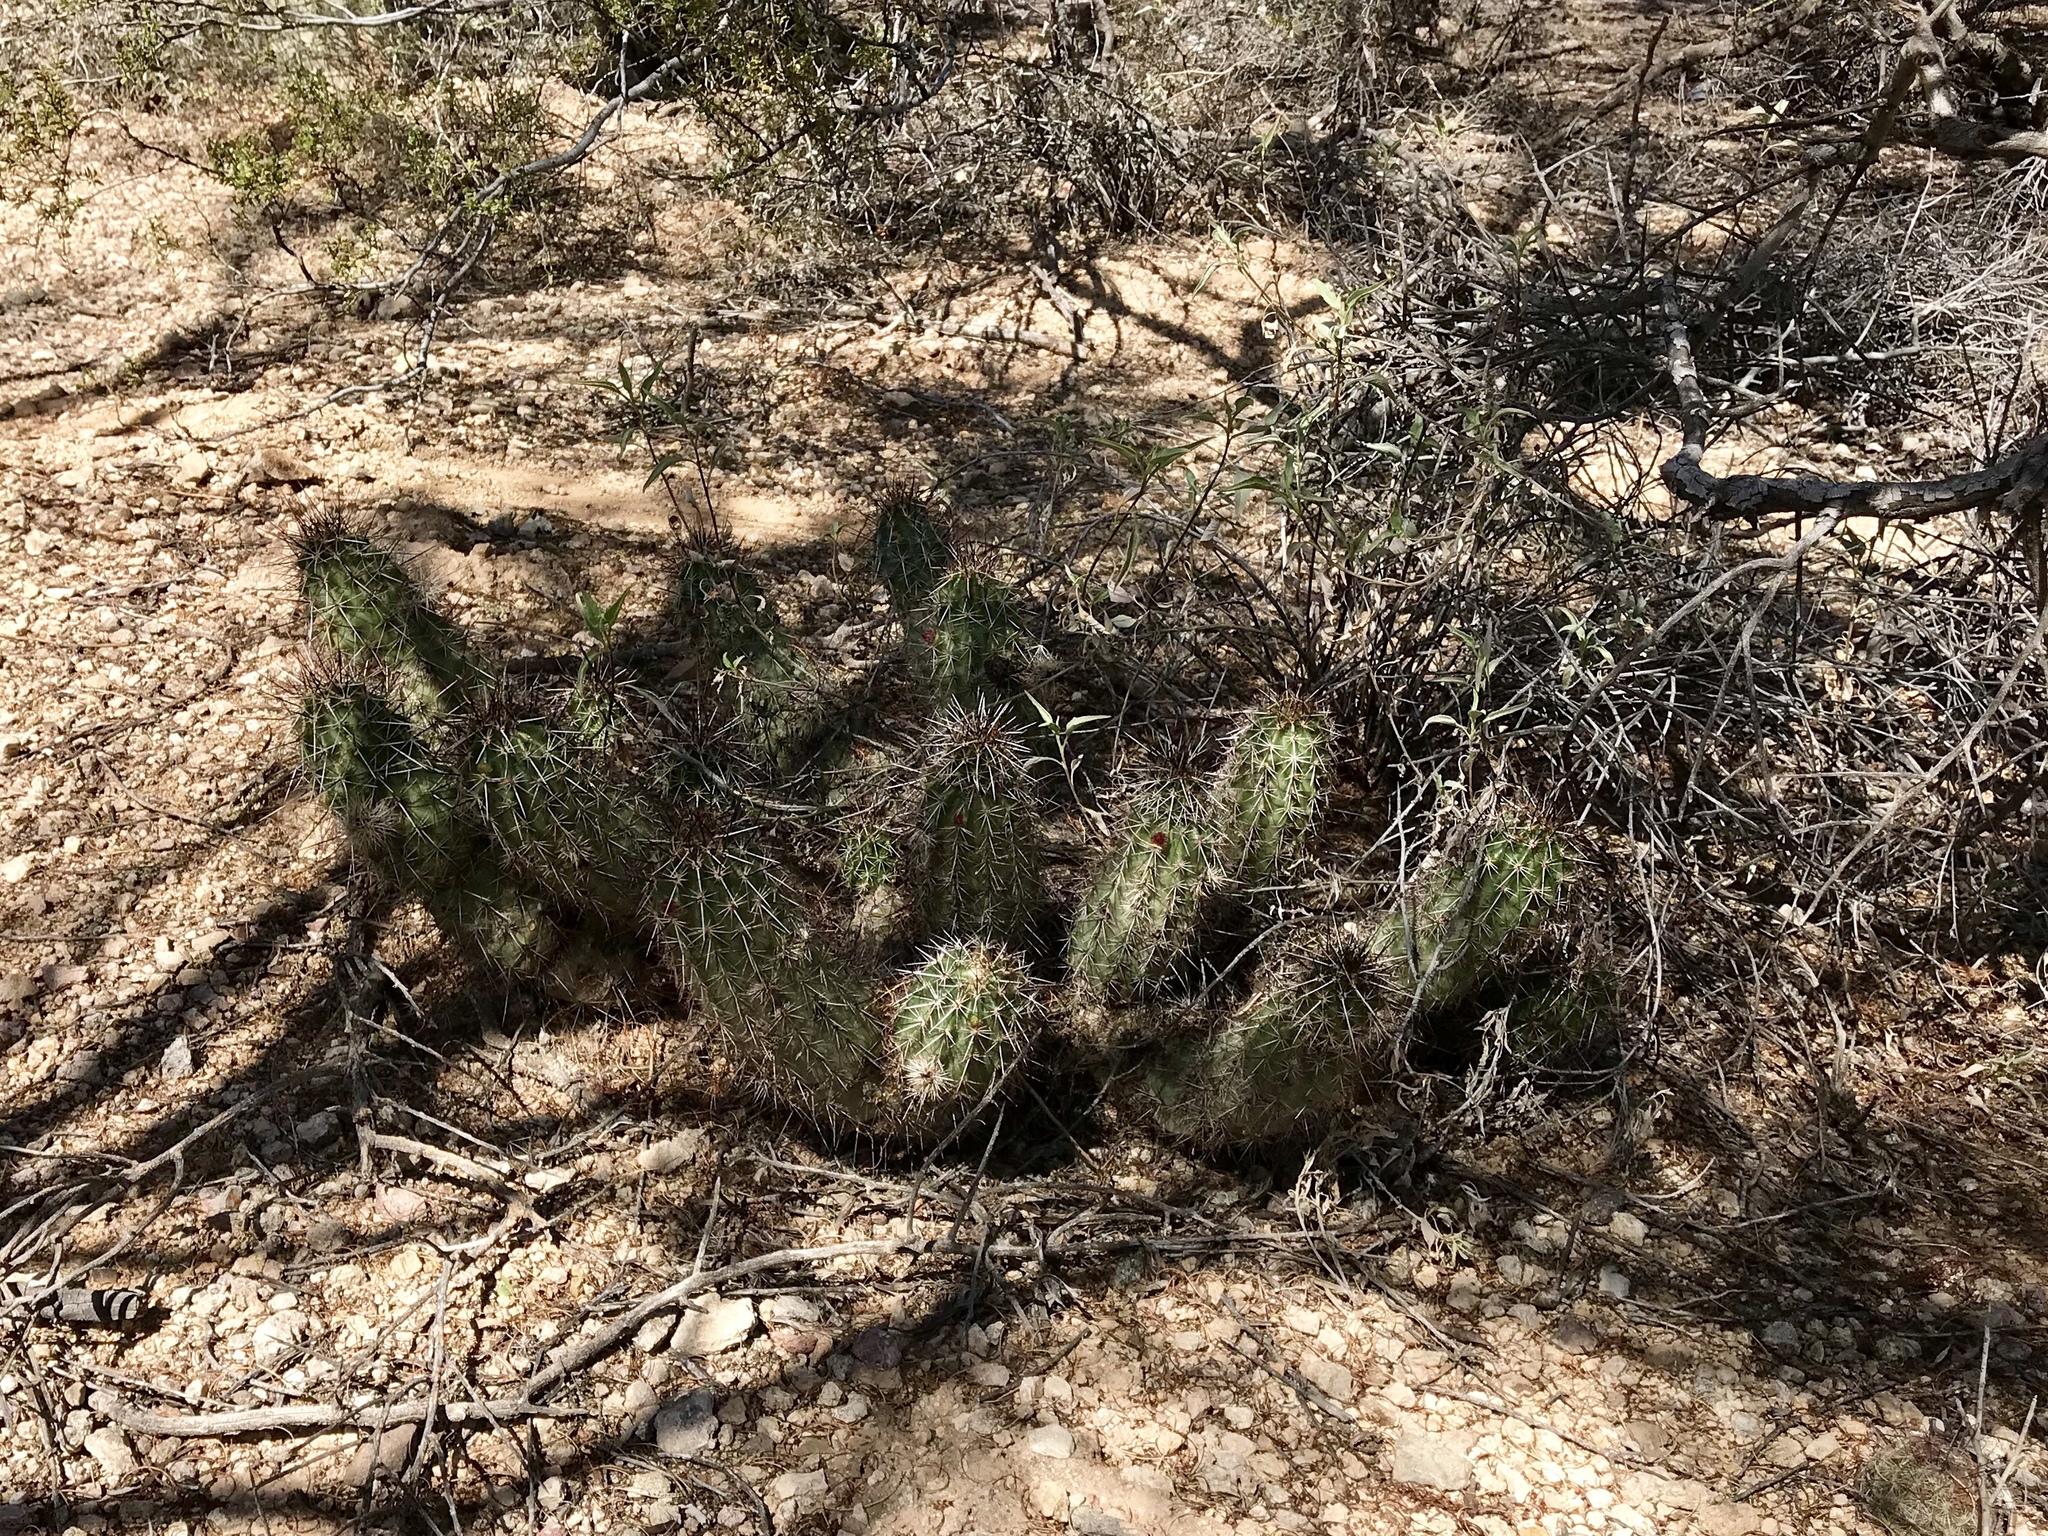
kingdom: Plantae
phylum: Tracheophyta
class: Magnoliopsida
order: Caryophyllales
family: Cactaceae
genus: Echinocereus
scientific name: Echinocereus fasciculatus
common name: Bundle hedgehog
